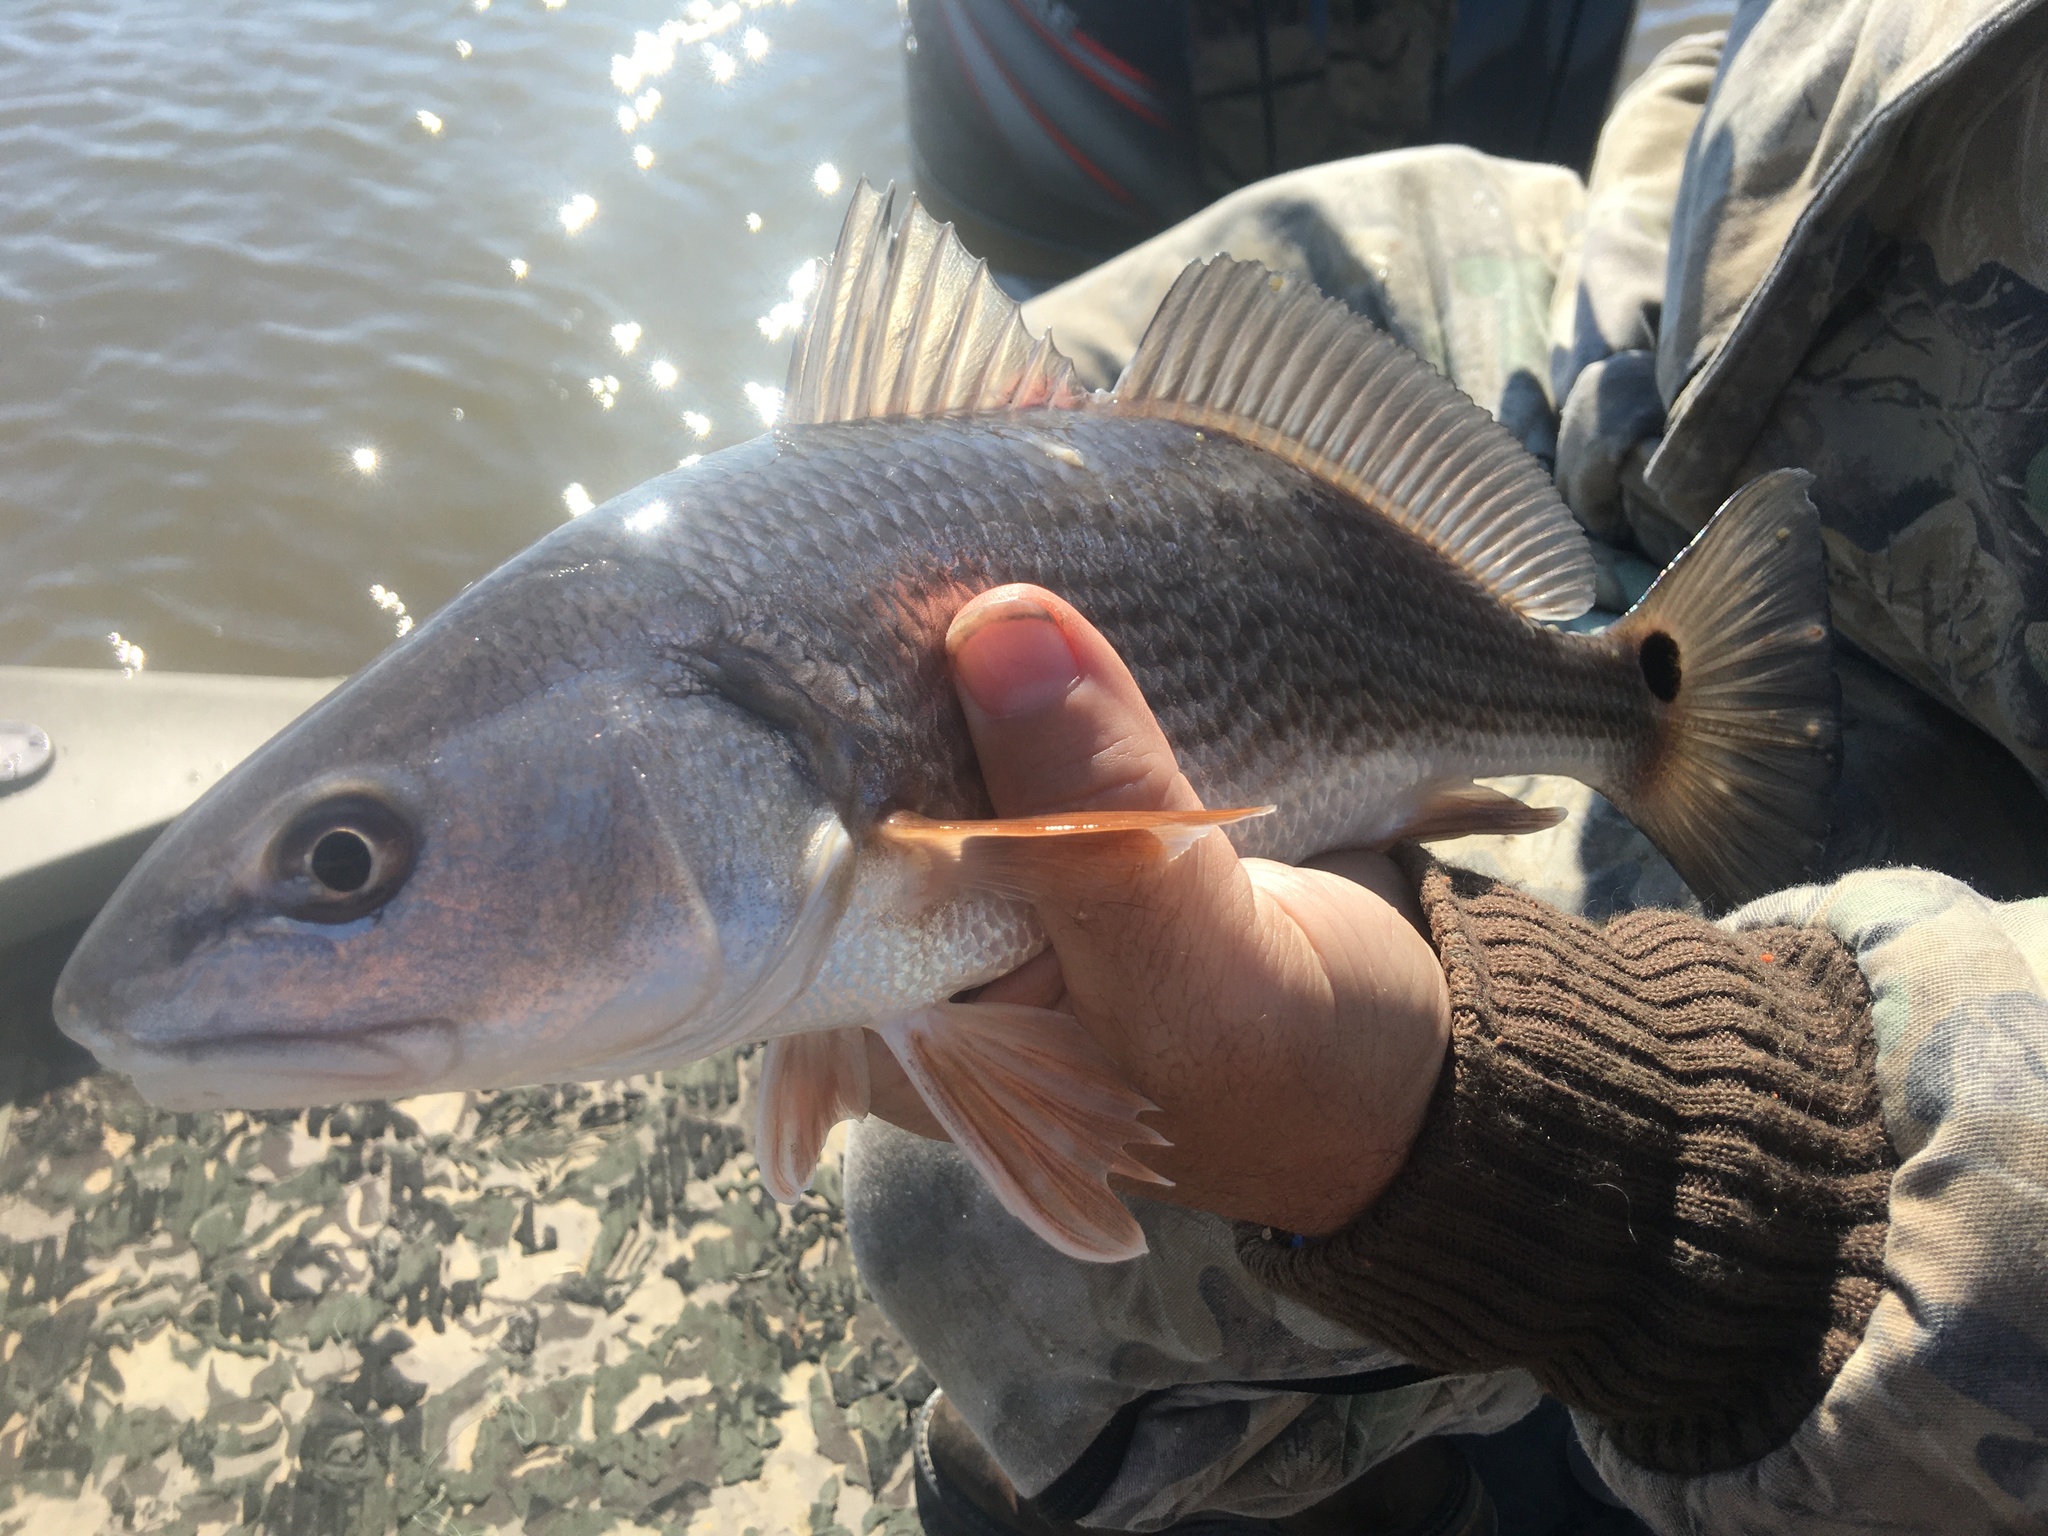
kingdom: Animalia
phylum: Chordata
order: Perciformes
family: Sciaenidae
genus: Sciaenops
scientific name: Sciaenops ocellatus
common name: Red drum
